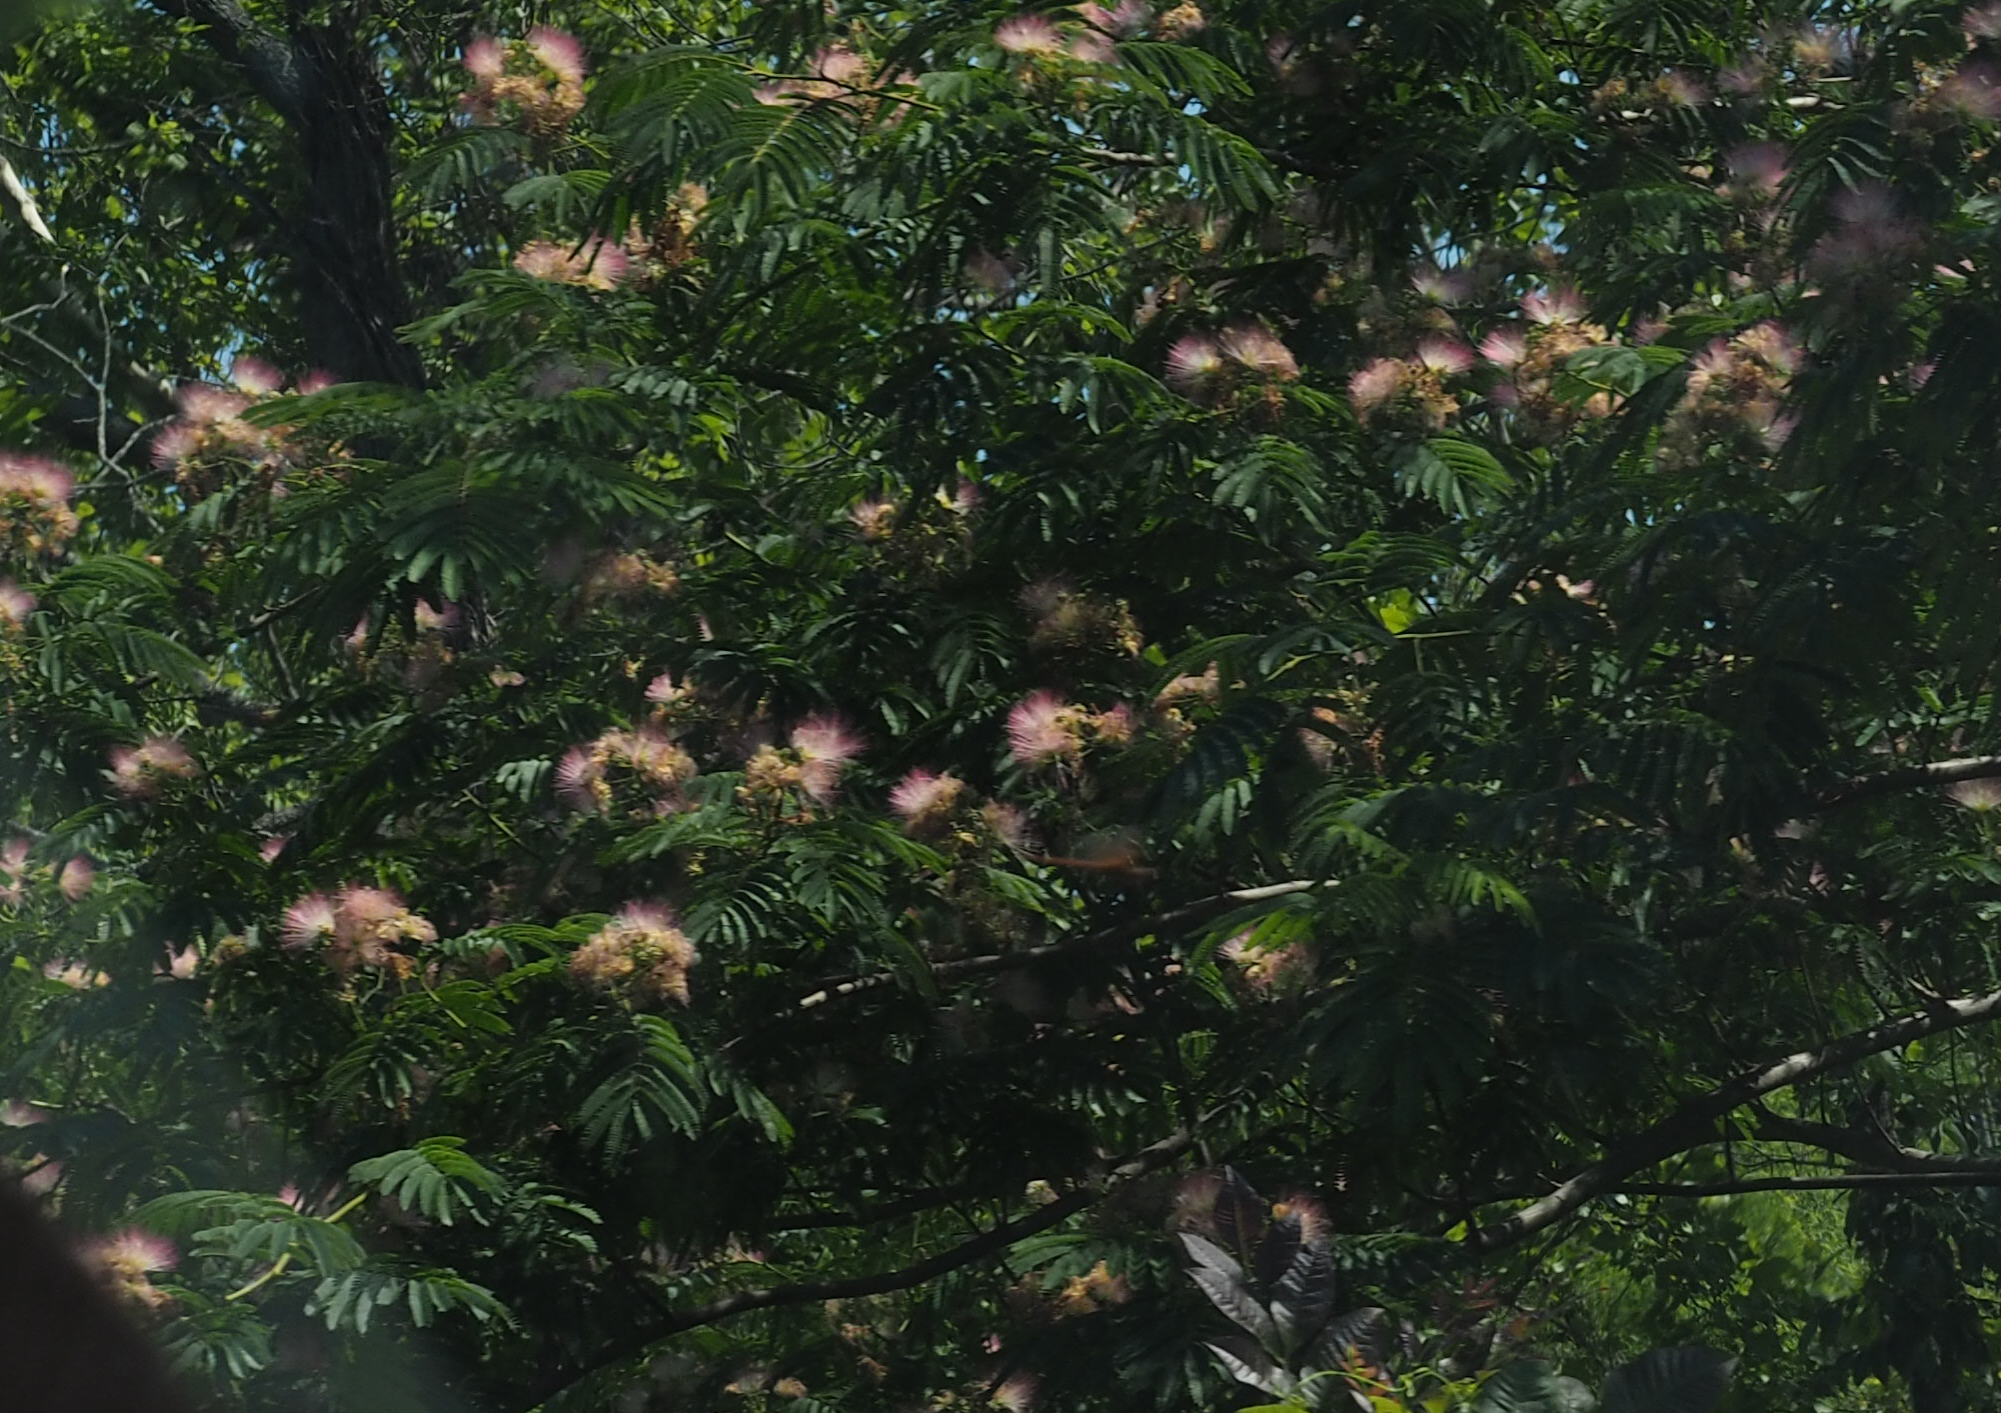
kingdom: Plantae
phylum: Tracheophyta
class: Magnoliopsida
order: Fabales
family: Fabaceae
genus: Albizia
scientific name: Albizia julibrissin
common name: Silktree
